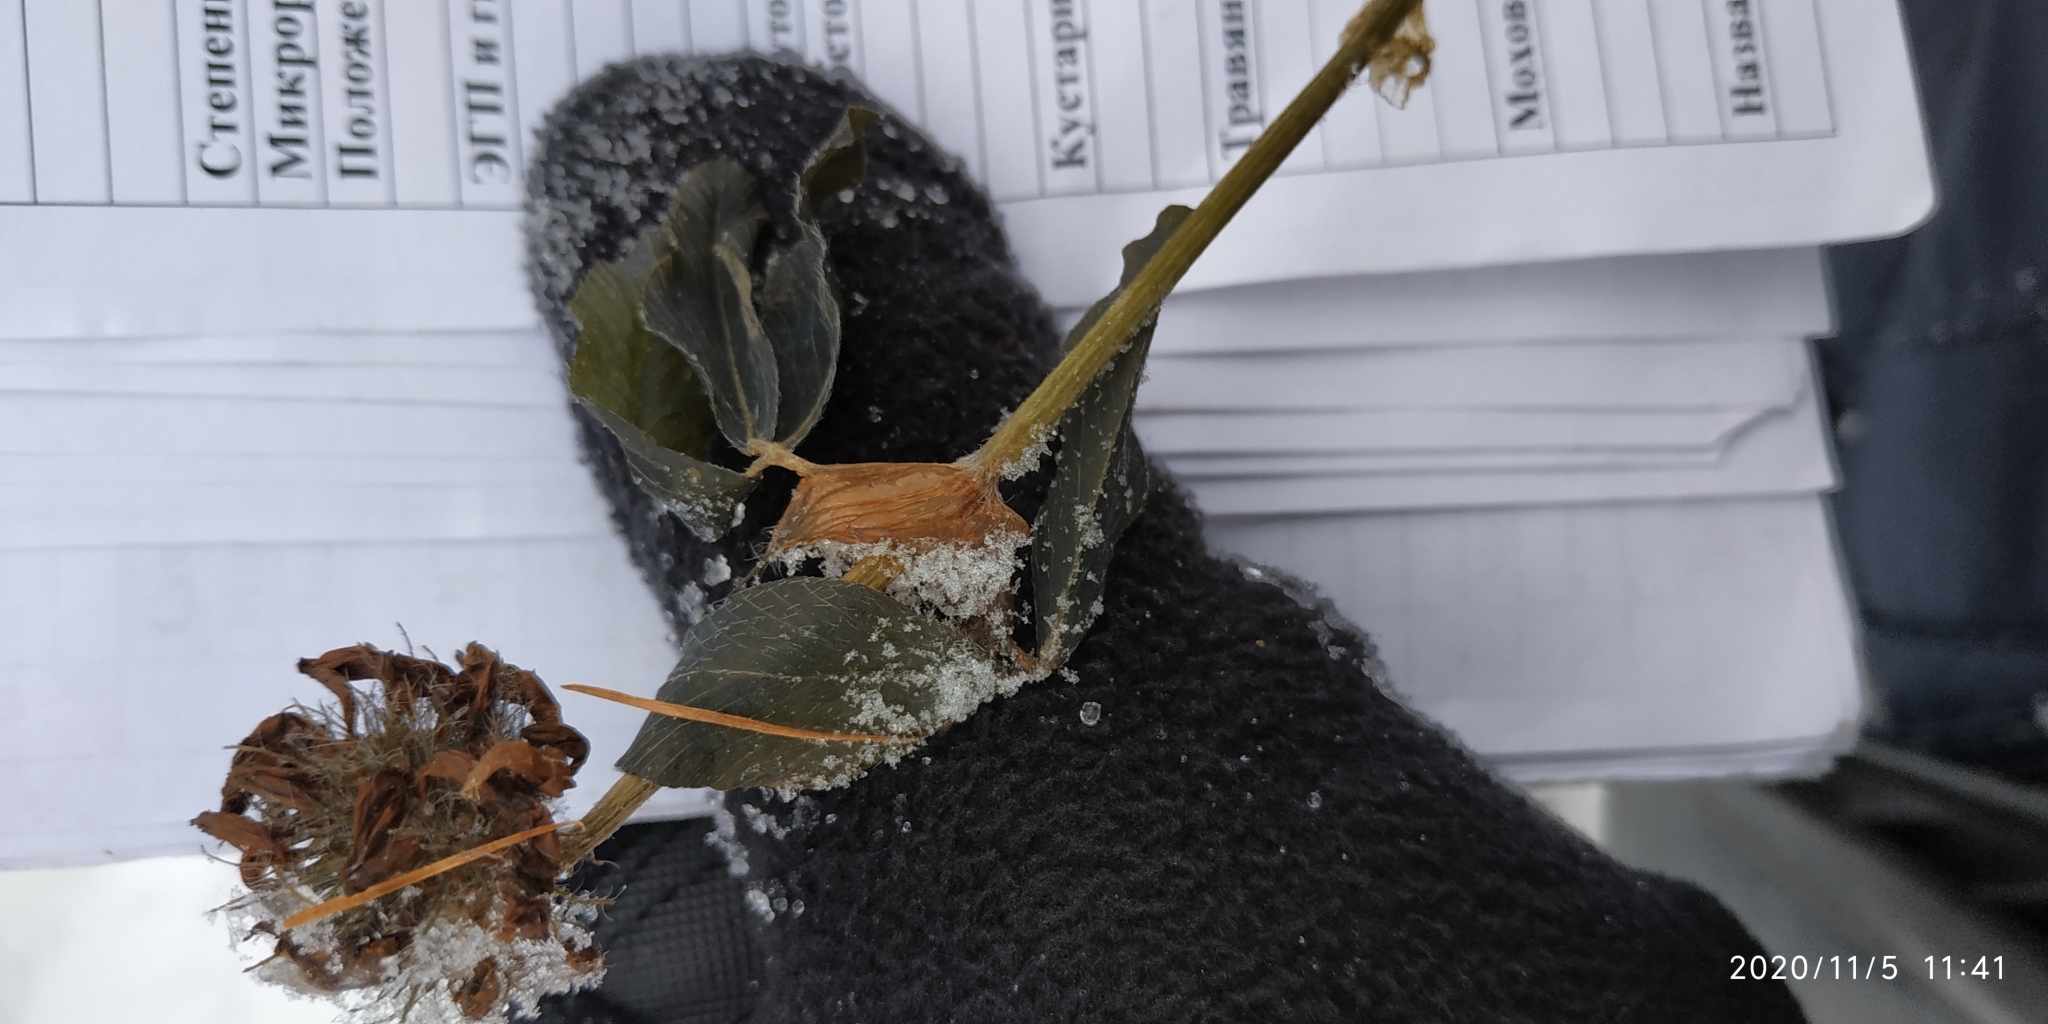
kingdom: Plantae
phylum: Tracheophyta
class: Magnoliopsida
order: Fabales
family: Fabaceae
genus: Trifolium
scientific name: Trifolium pratense
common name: Red clover
